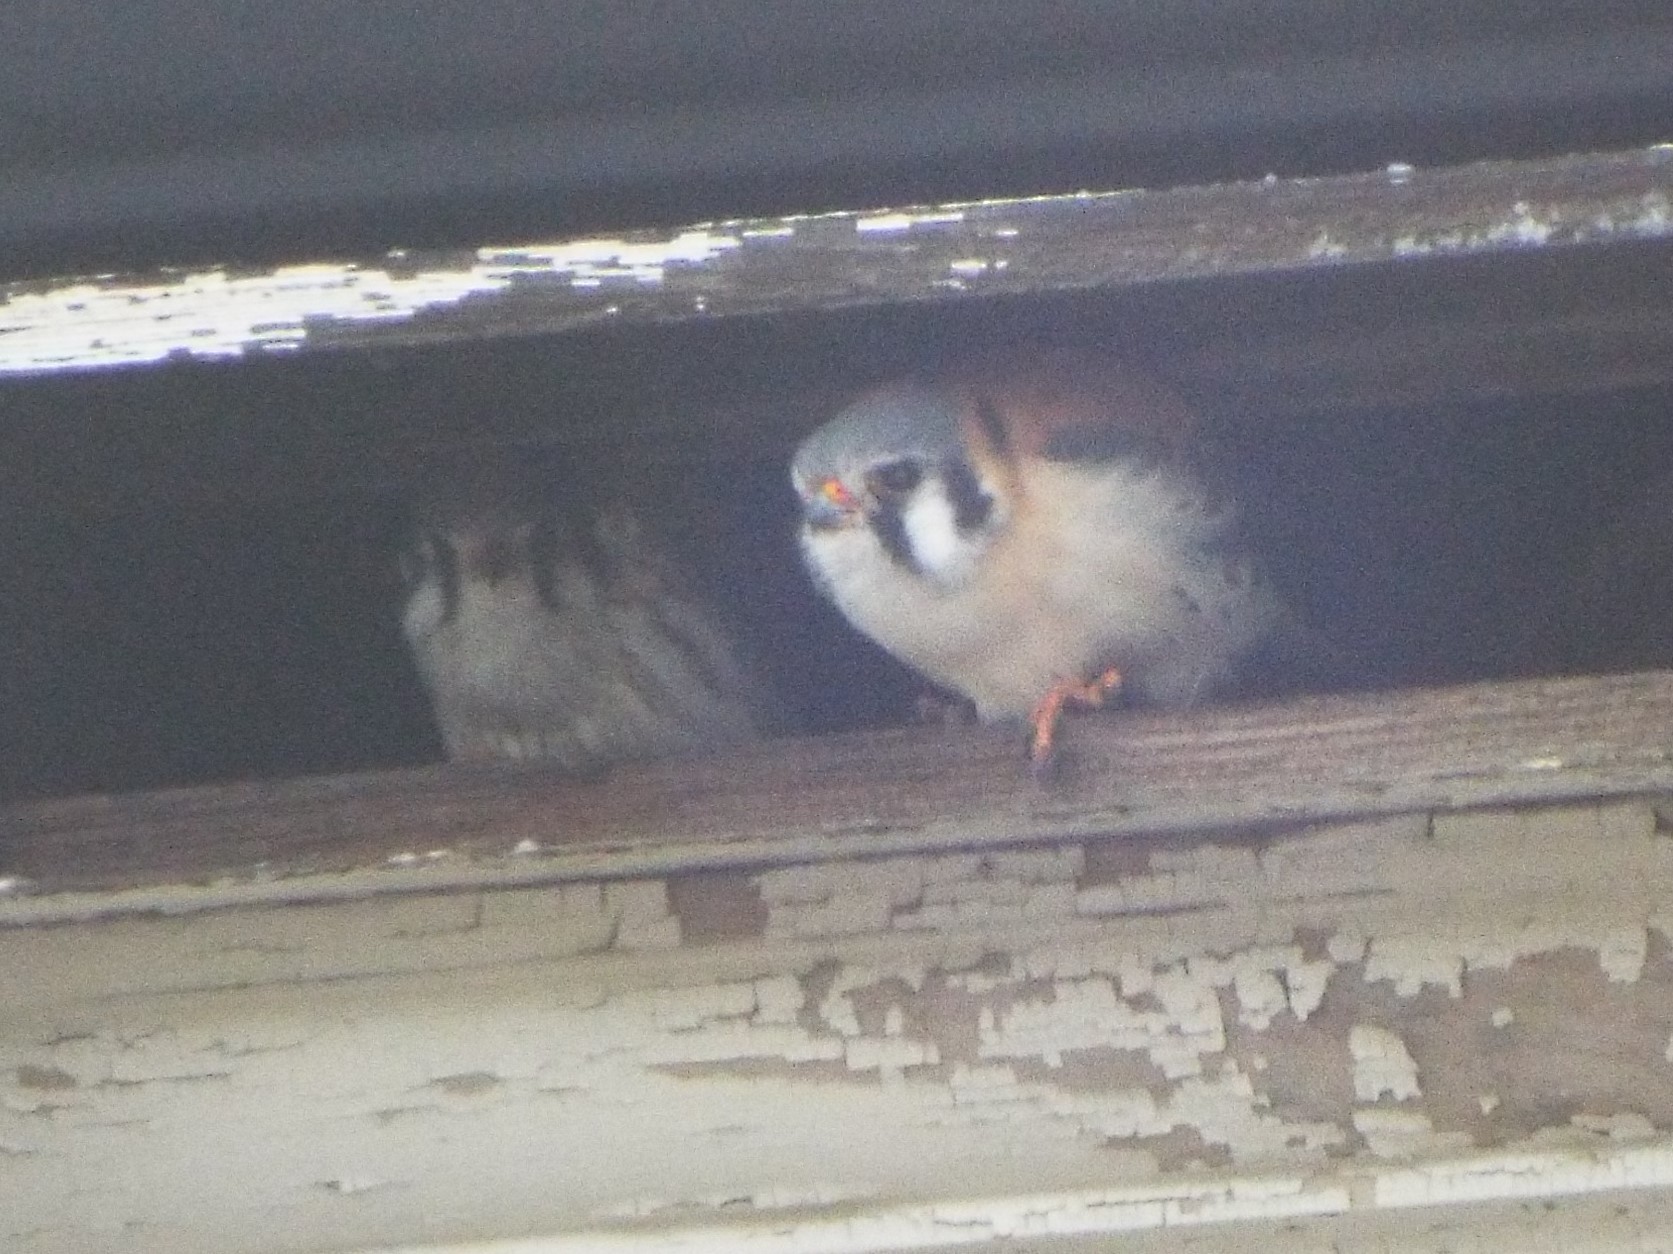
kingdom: Animalia
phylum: Chordata
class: Aves
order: Falconiformes
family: Falconidae
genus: Falco
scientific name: Falco sparverius
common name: American kestrel
